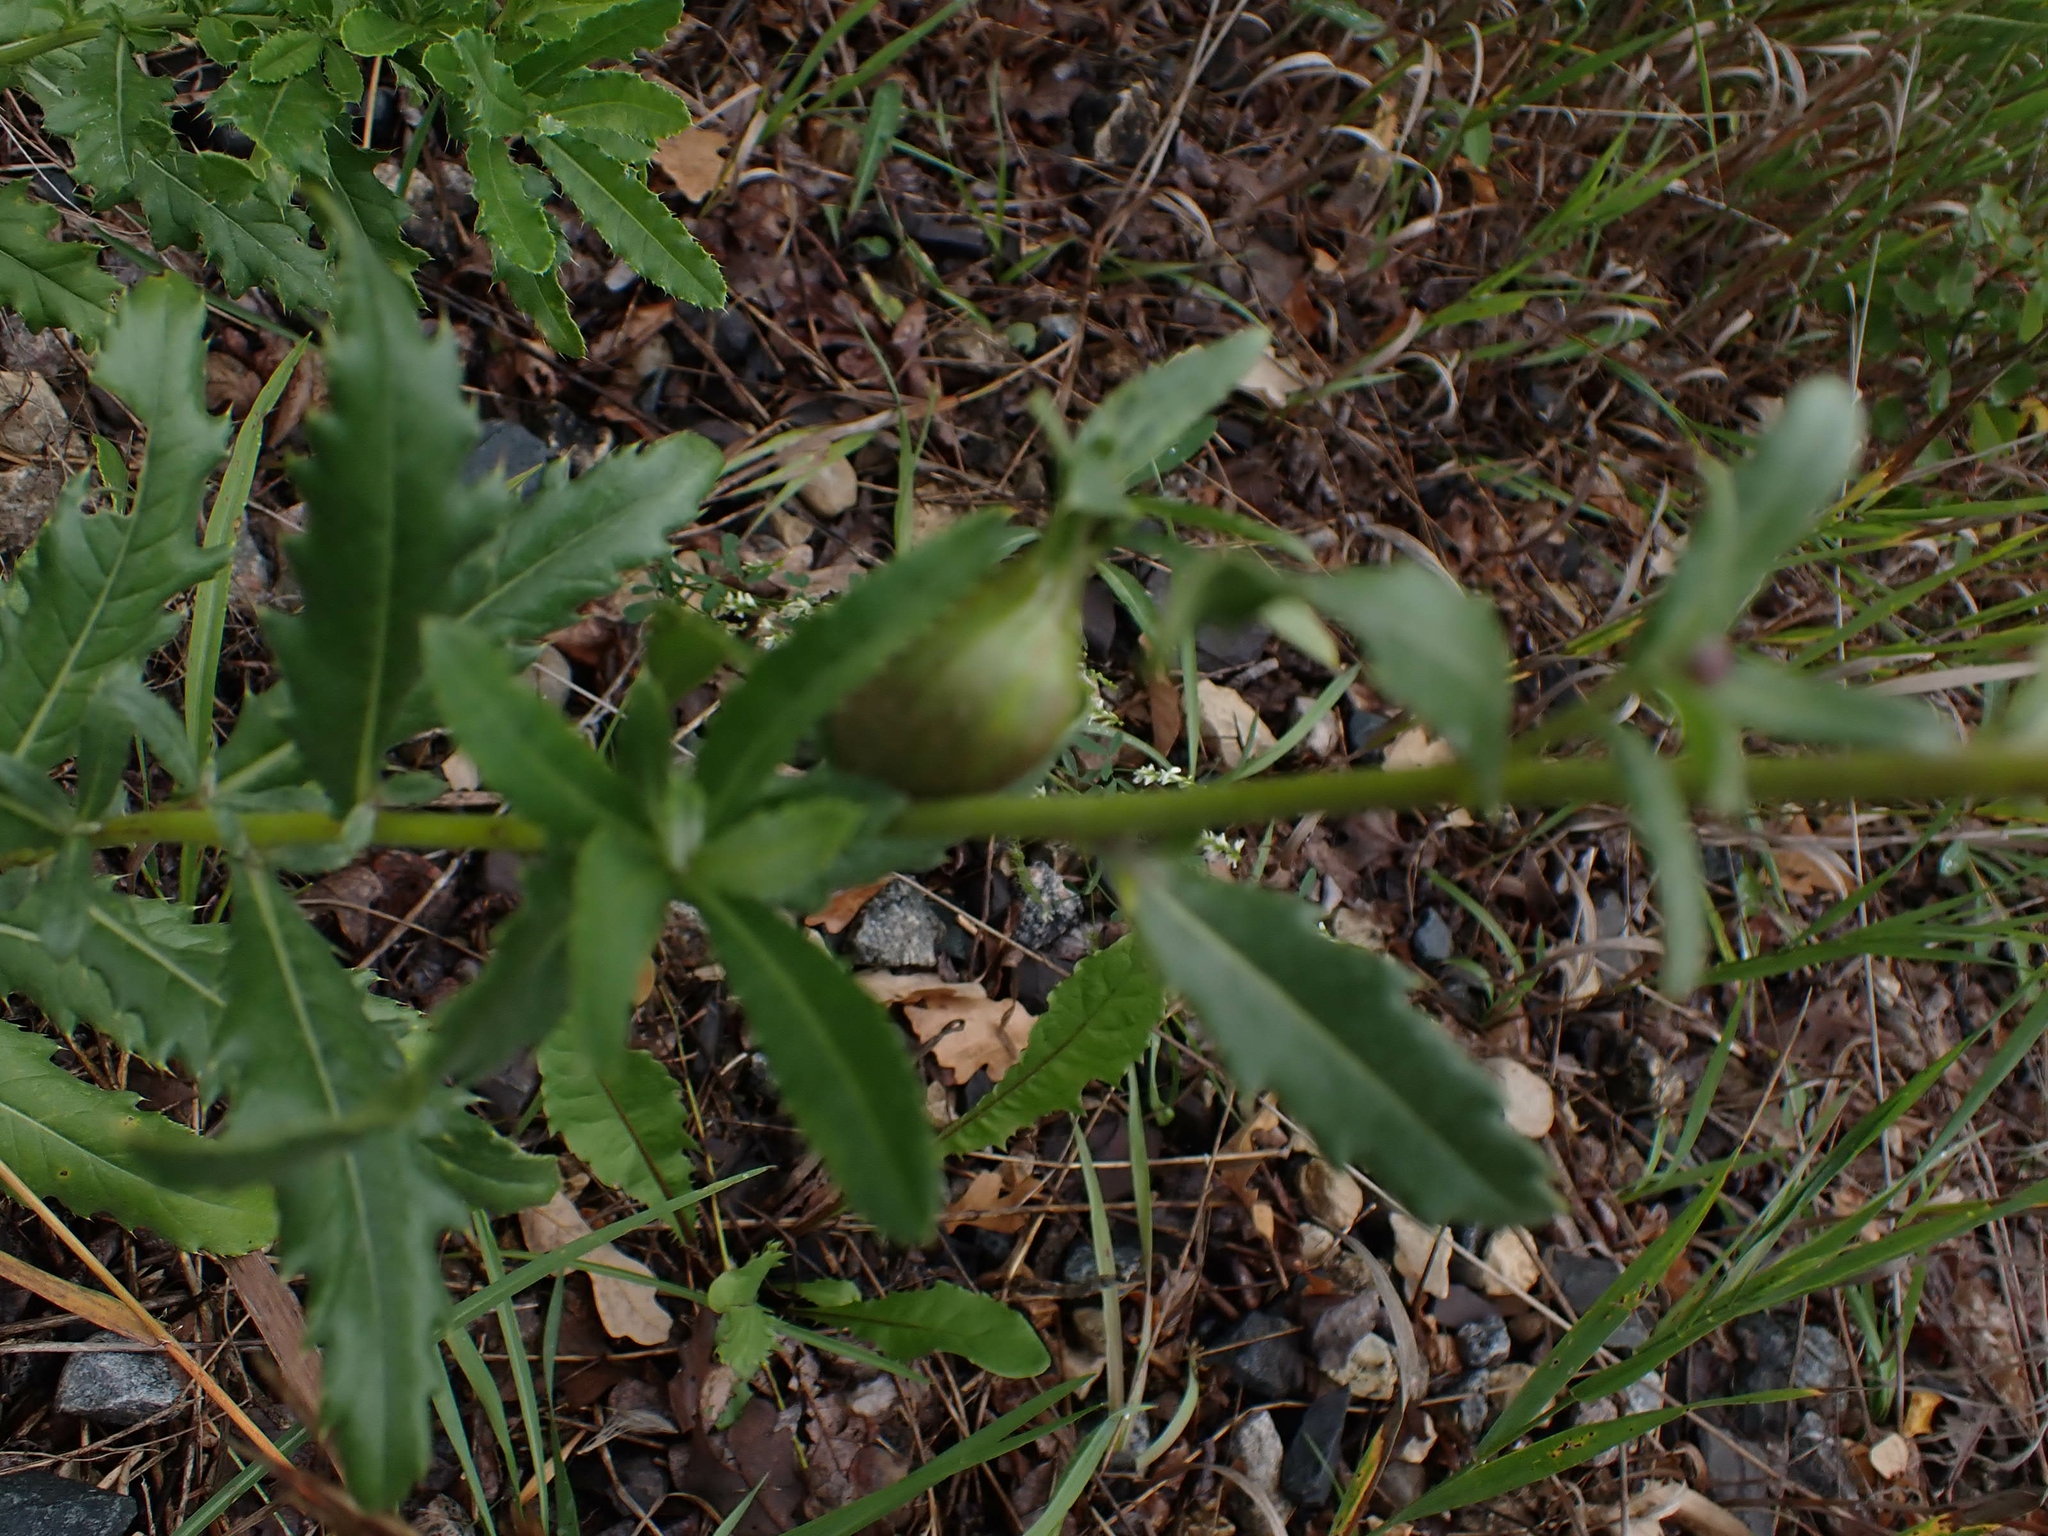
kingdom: Plantae
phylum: Tracheophyta
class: Magnoliopsida
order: Asterales
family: Asteraceae
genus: Cirsium
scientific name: Cirsium arvense
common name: Creeping thistle
